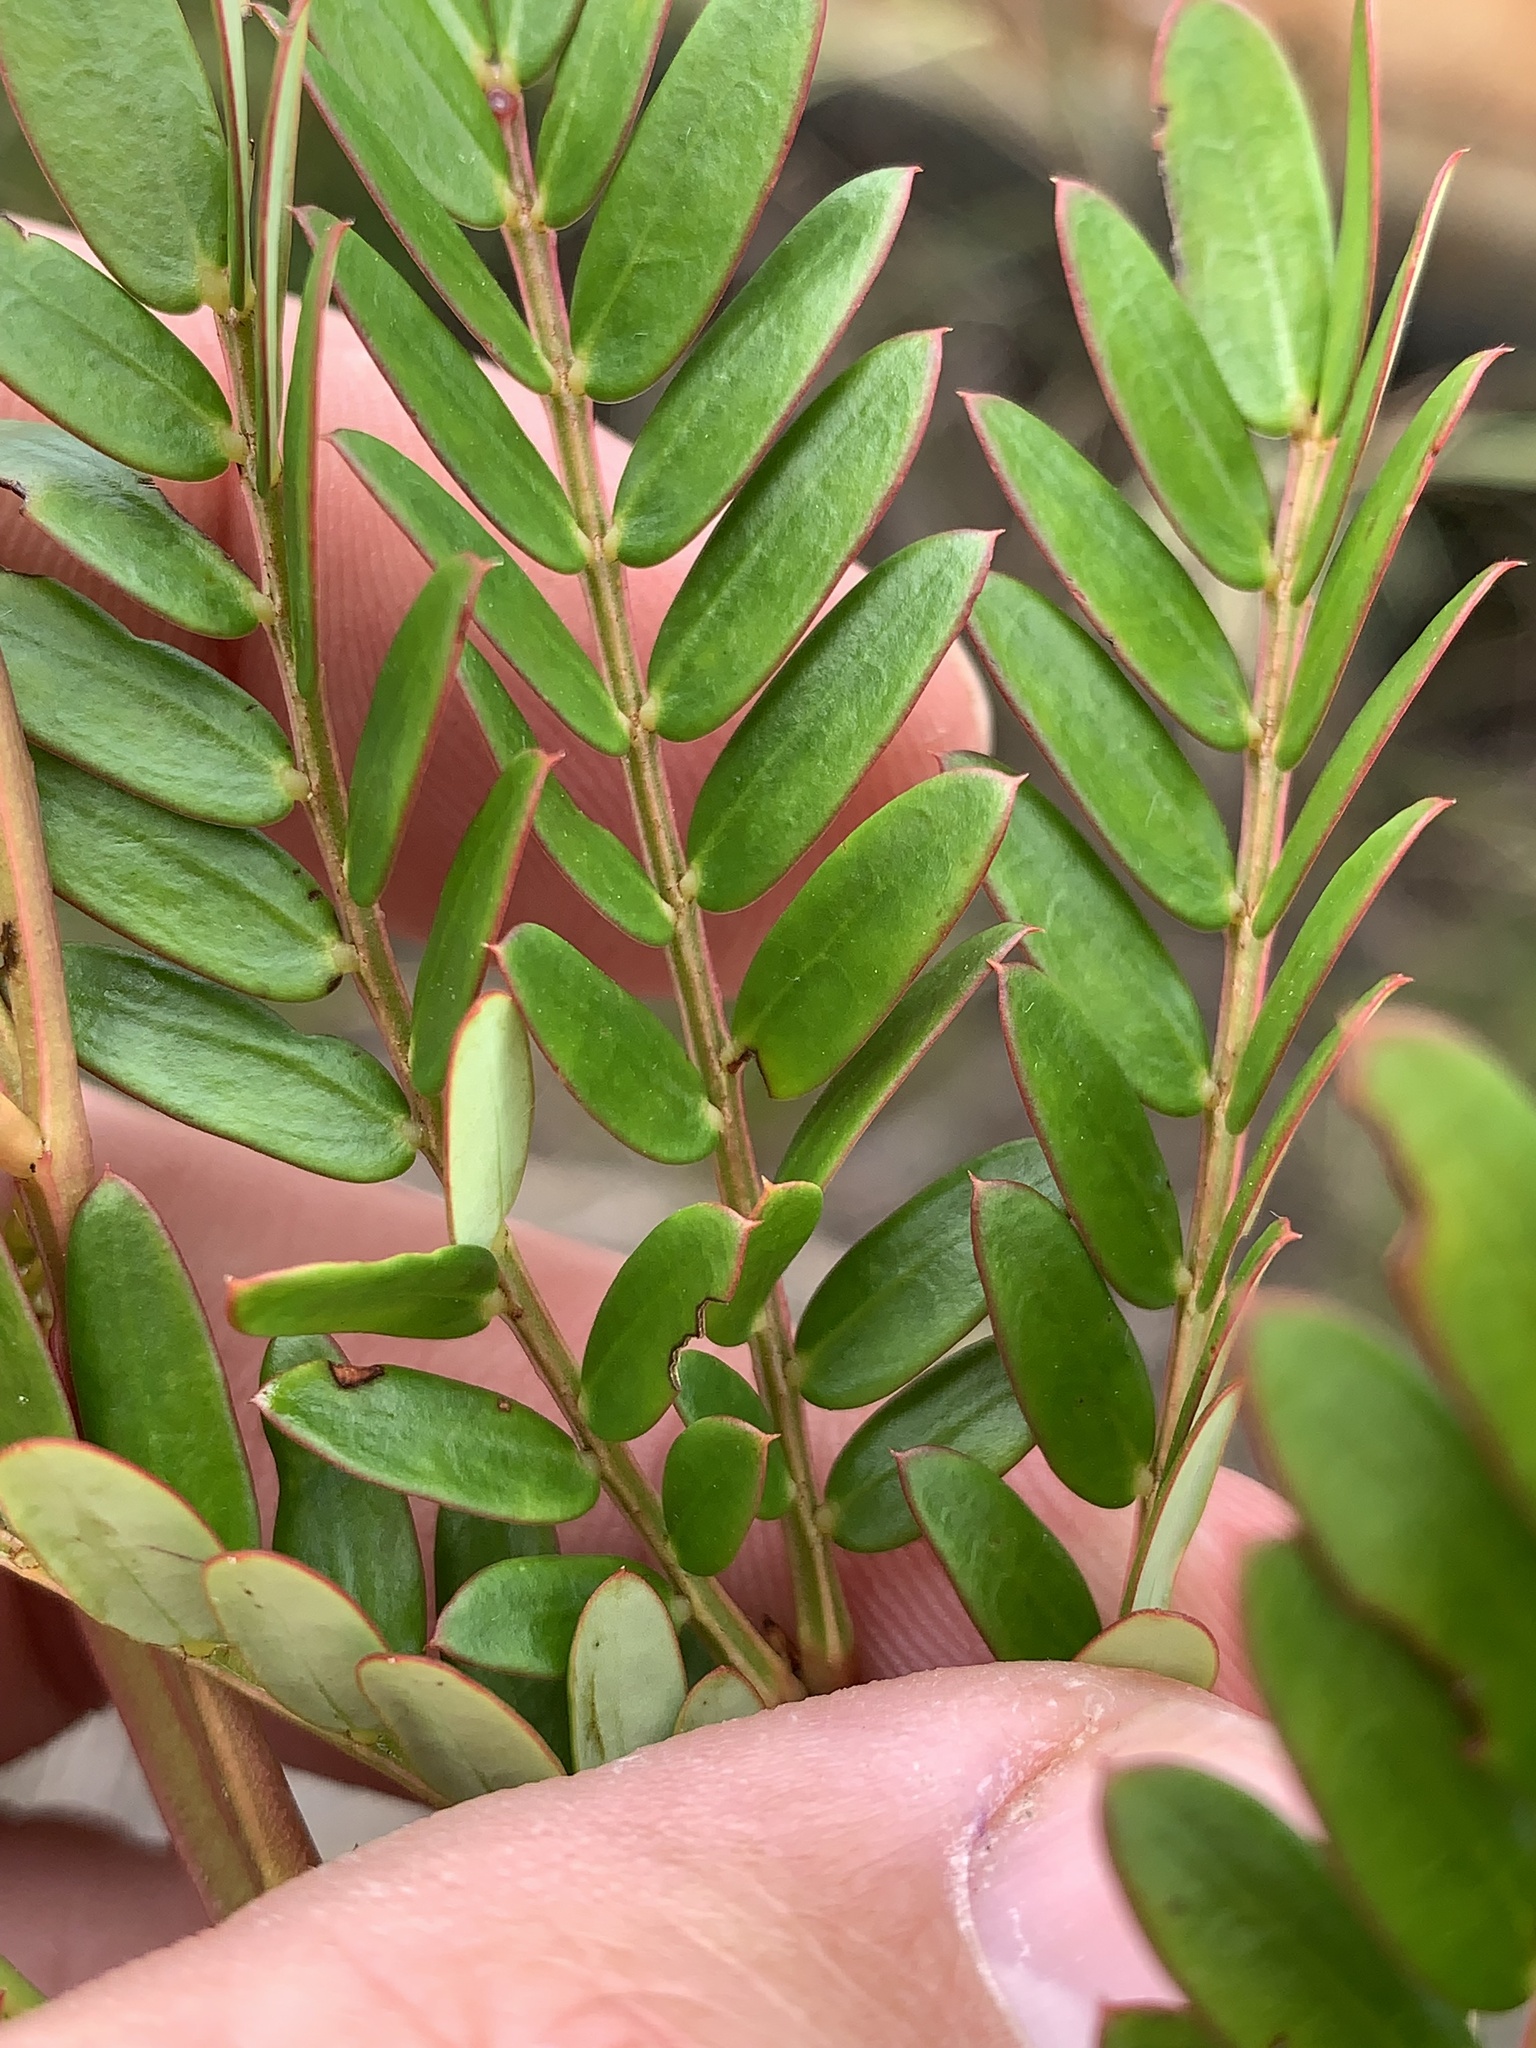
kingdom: Plantae
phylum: Tracheophyta
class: Magnoliopsida
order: Fabales
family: Fabaceae
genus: Acacia
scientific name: Acacia terminalis
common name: Cedar wattle
